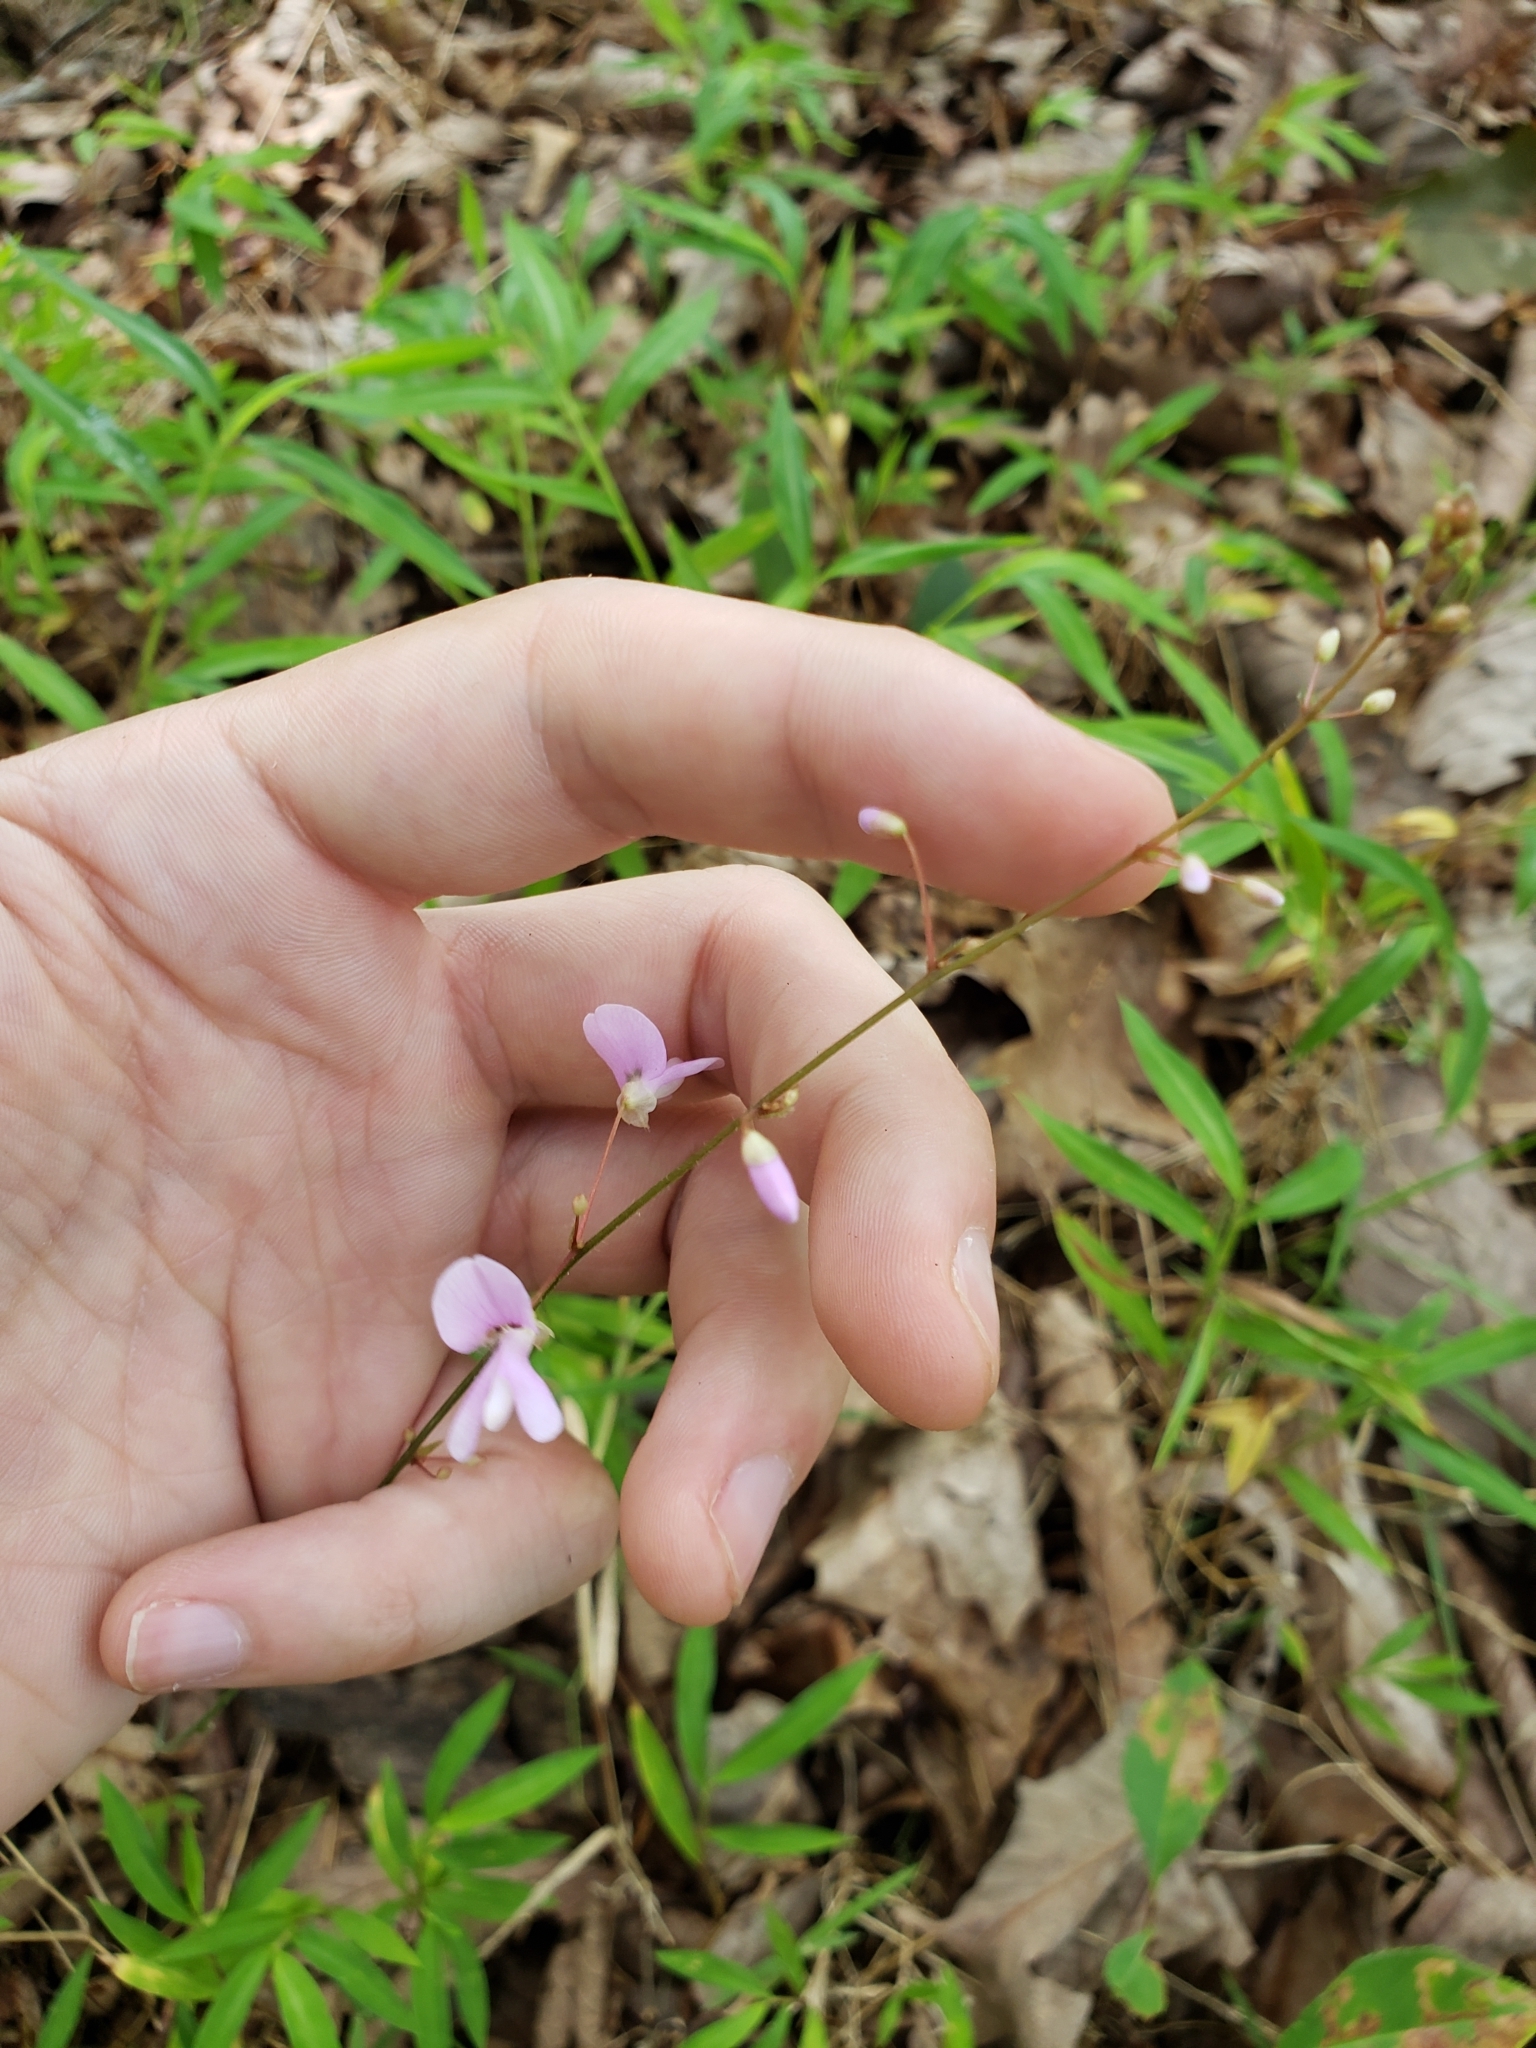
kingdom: Plantae
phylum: Tracheophyta
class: Magnoliopsida
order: Fabales
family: Fabaceae
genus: Hylodesmum
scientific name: Hylodesmum nudiflorum
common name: Bare-stemmed tick-trefoil
